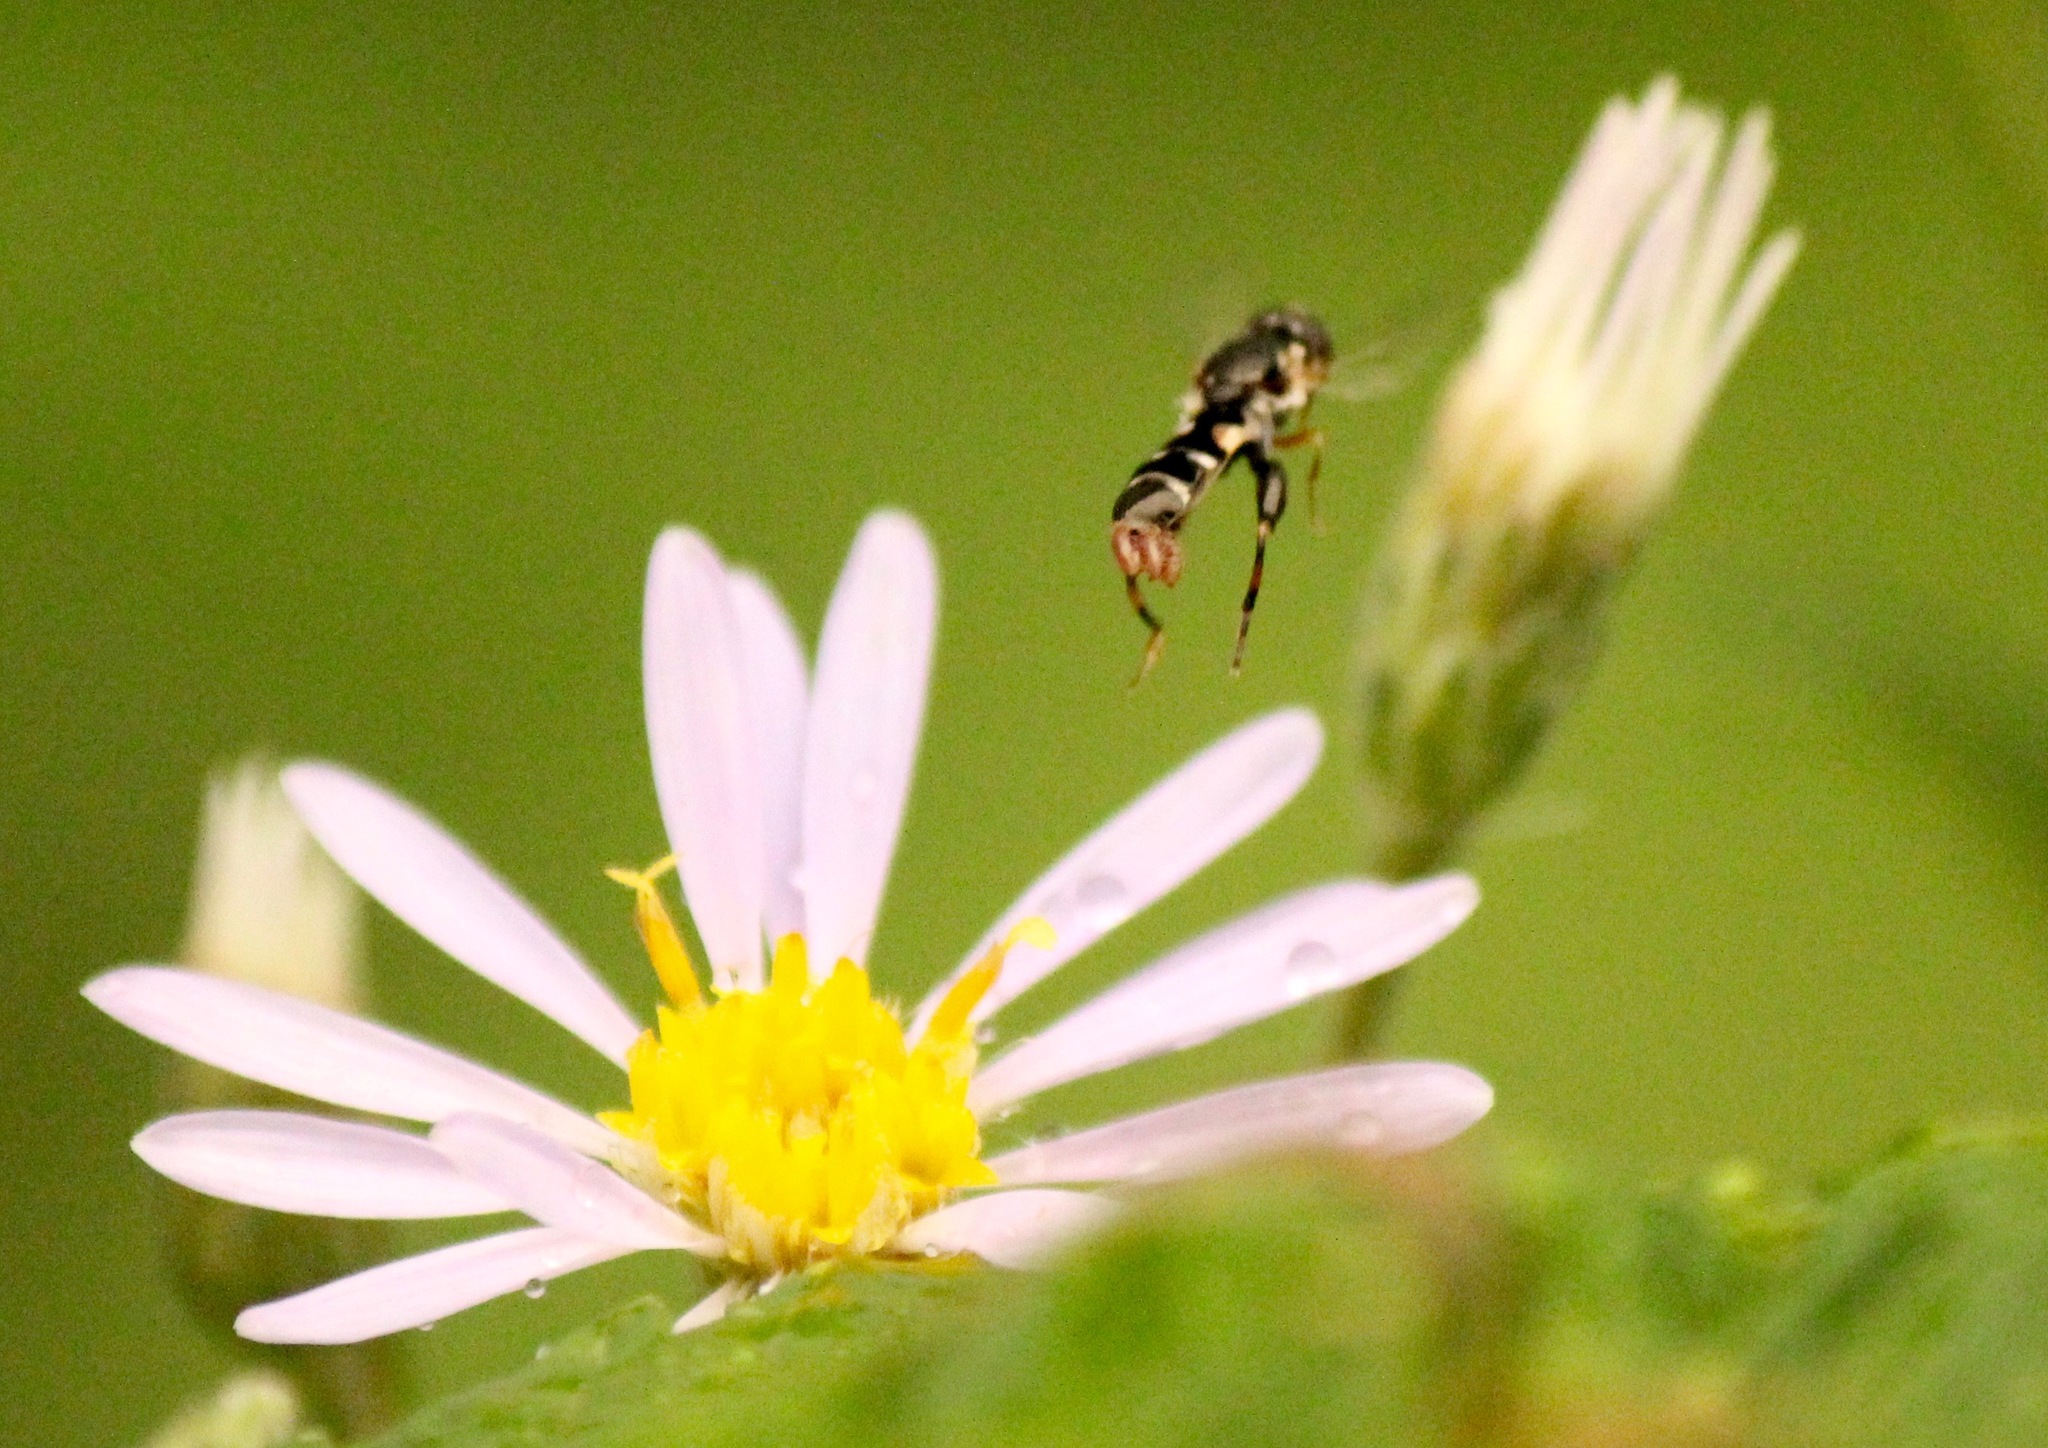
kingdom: Animalia
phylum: Arthropoda
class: Insecta
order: Diptera
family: Syrphidae
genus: Syritta
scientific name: Syritta pipiens
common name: Hover fly
